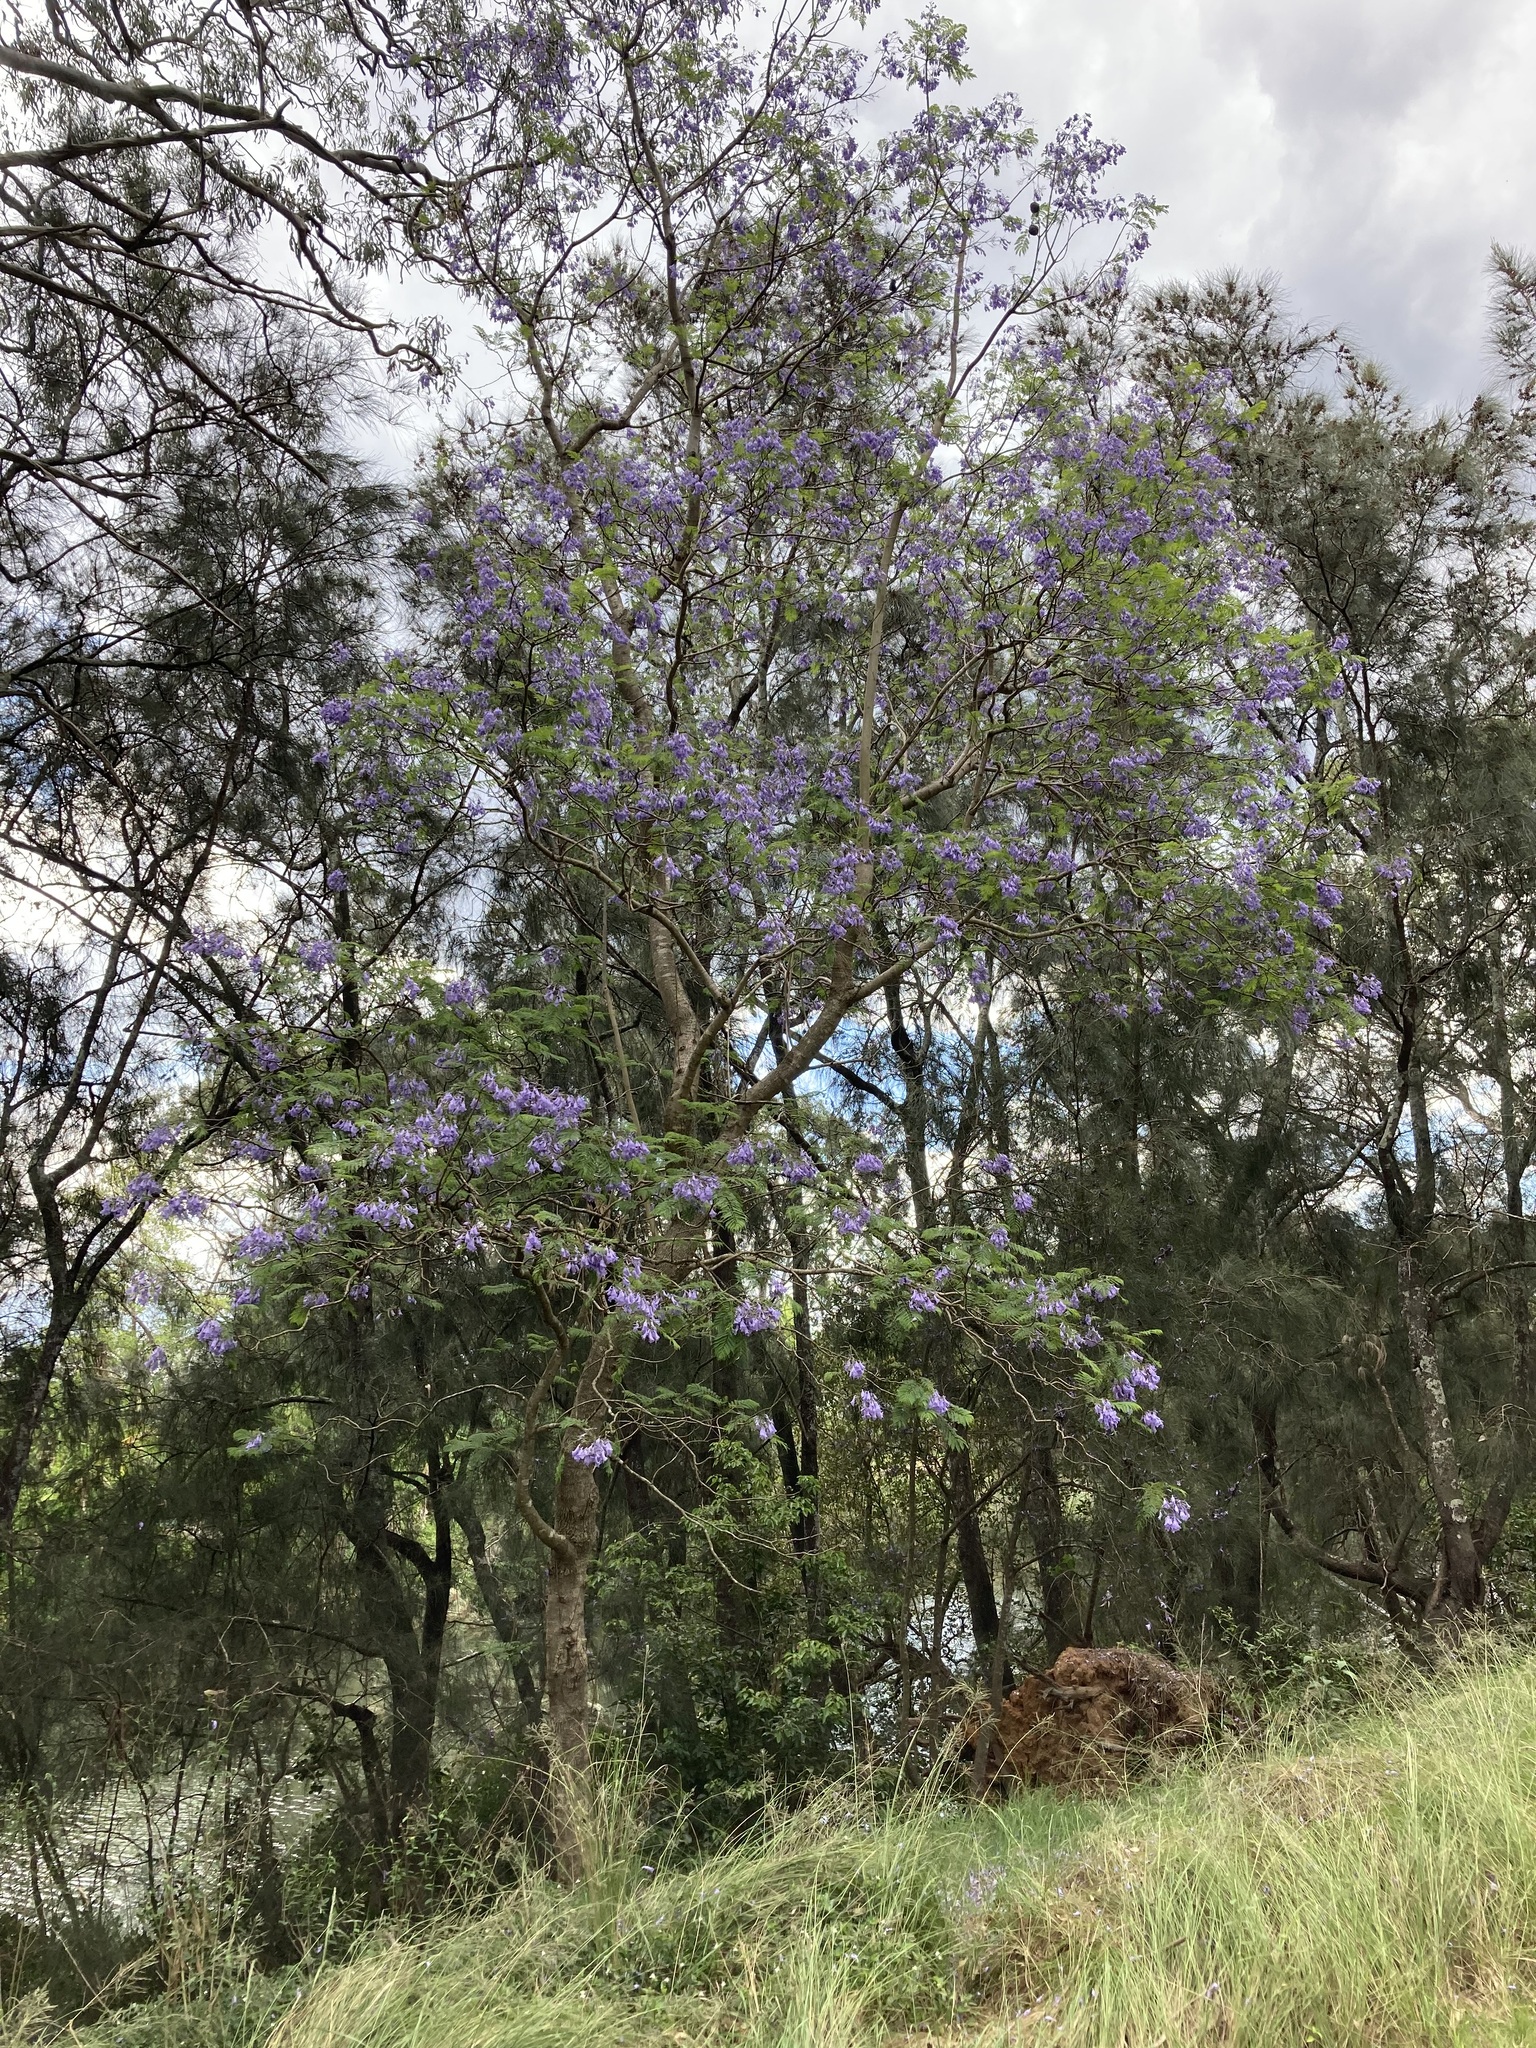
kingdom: Plantae
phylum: Tracheophyta
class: Magnoliopsida
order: Lamiales
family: Bignoniaceae
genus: Jacaranda
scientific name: Jacaranda mimosifolia
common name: Black poui
